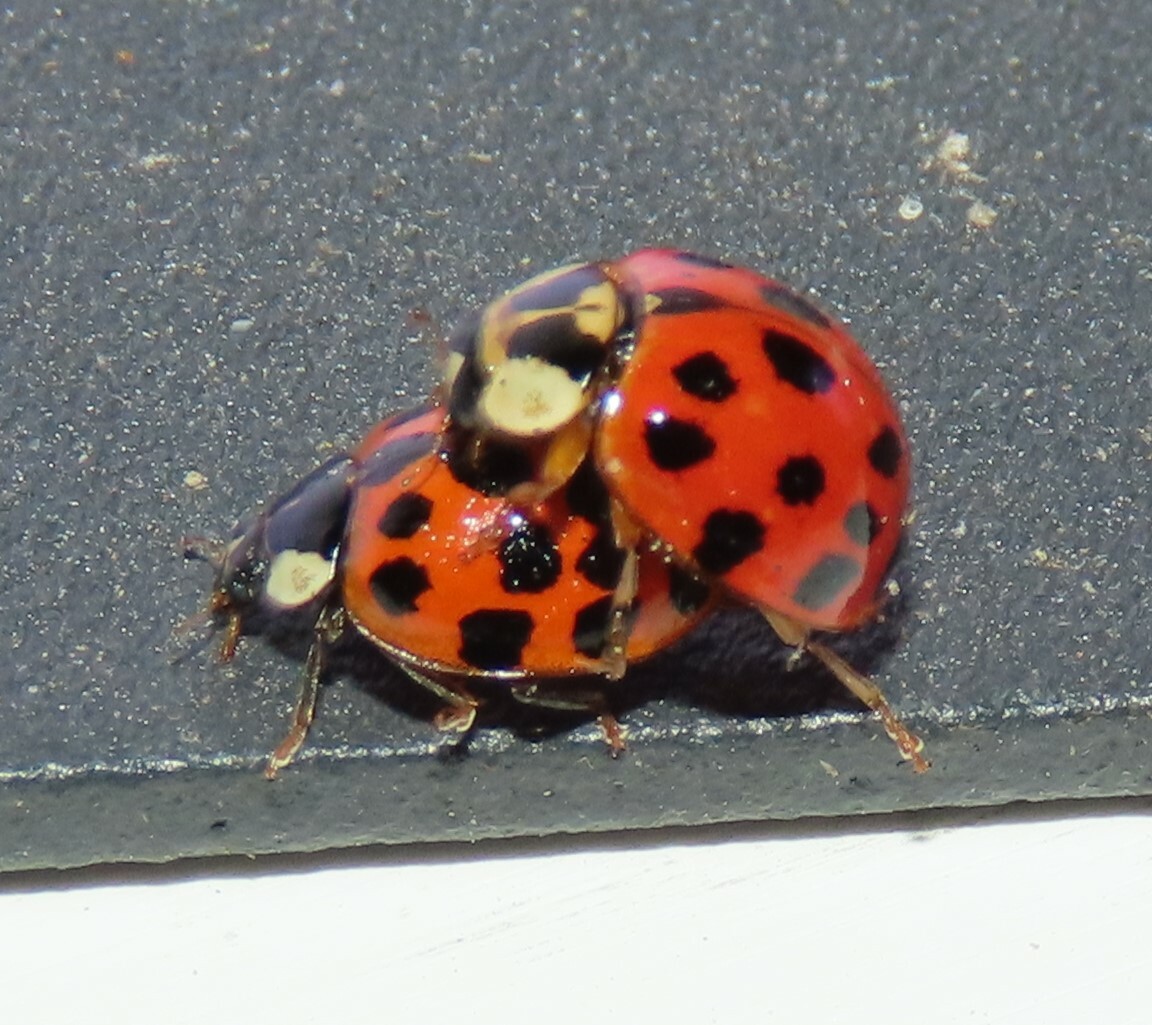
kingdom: Animalia
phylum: Arthropoda
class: Insecta
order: Coleoptera
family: Coccinellidae
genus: Harmonia
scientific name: Harmonia axyridis
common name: Harlequin ladybird
